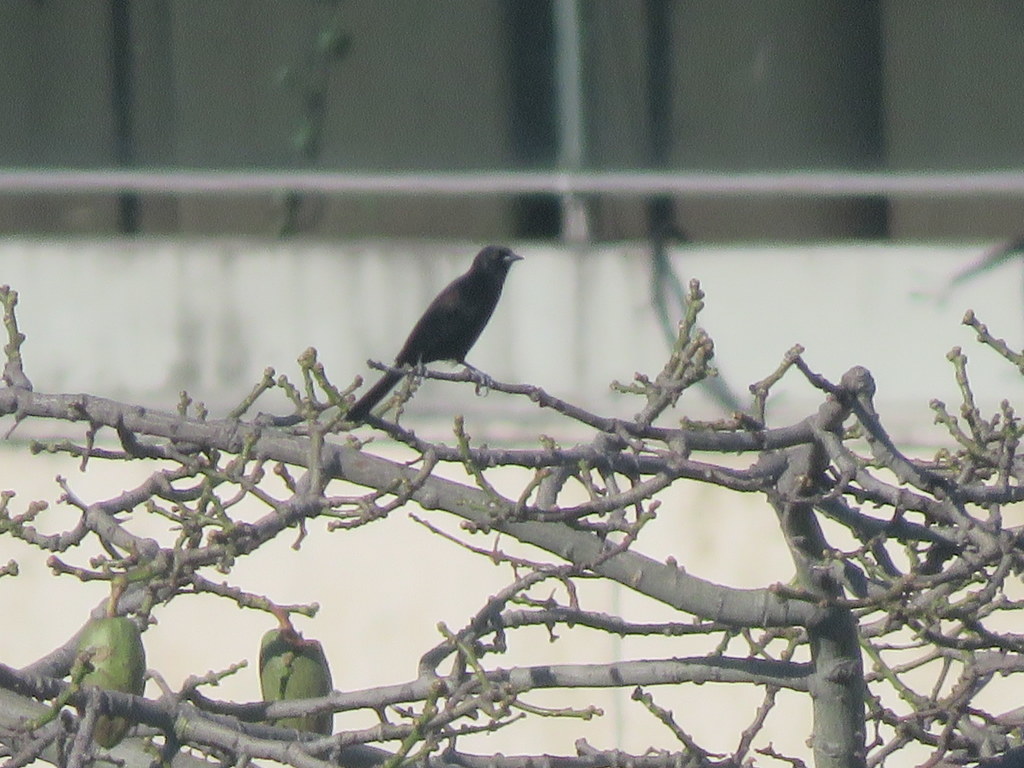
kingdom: Animalia
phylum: Chordata
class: Aves
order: Passeriformes
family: Icteridae
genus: Icterus
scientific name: Icterus cayanensis
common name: Epaulet oriole
